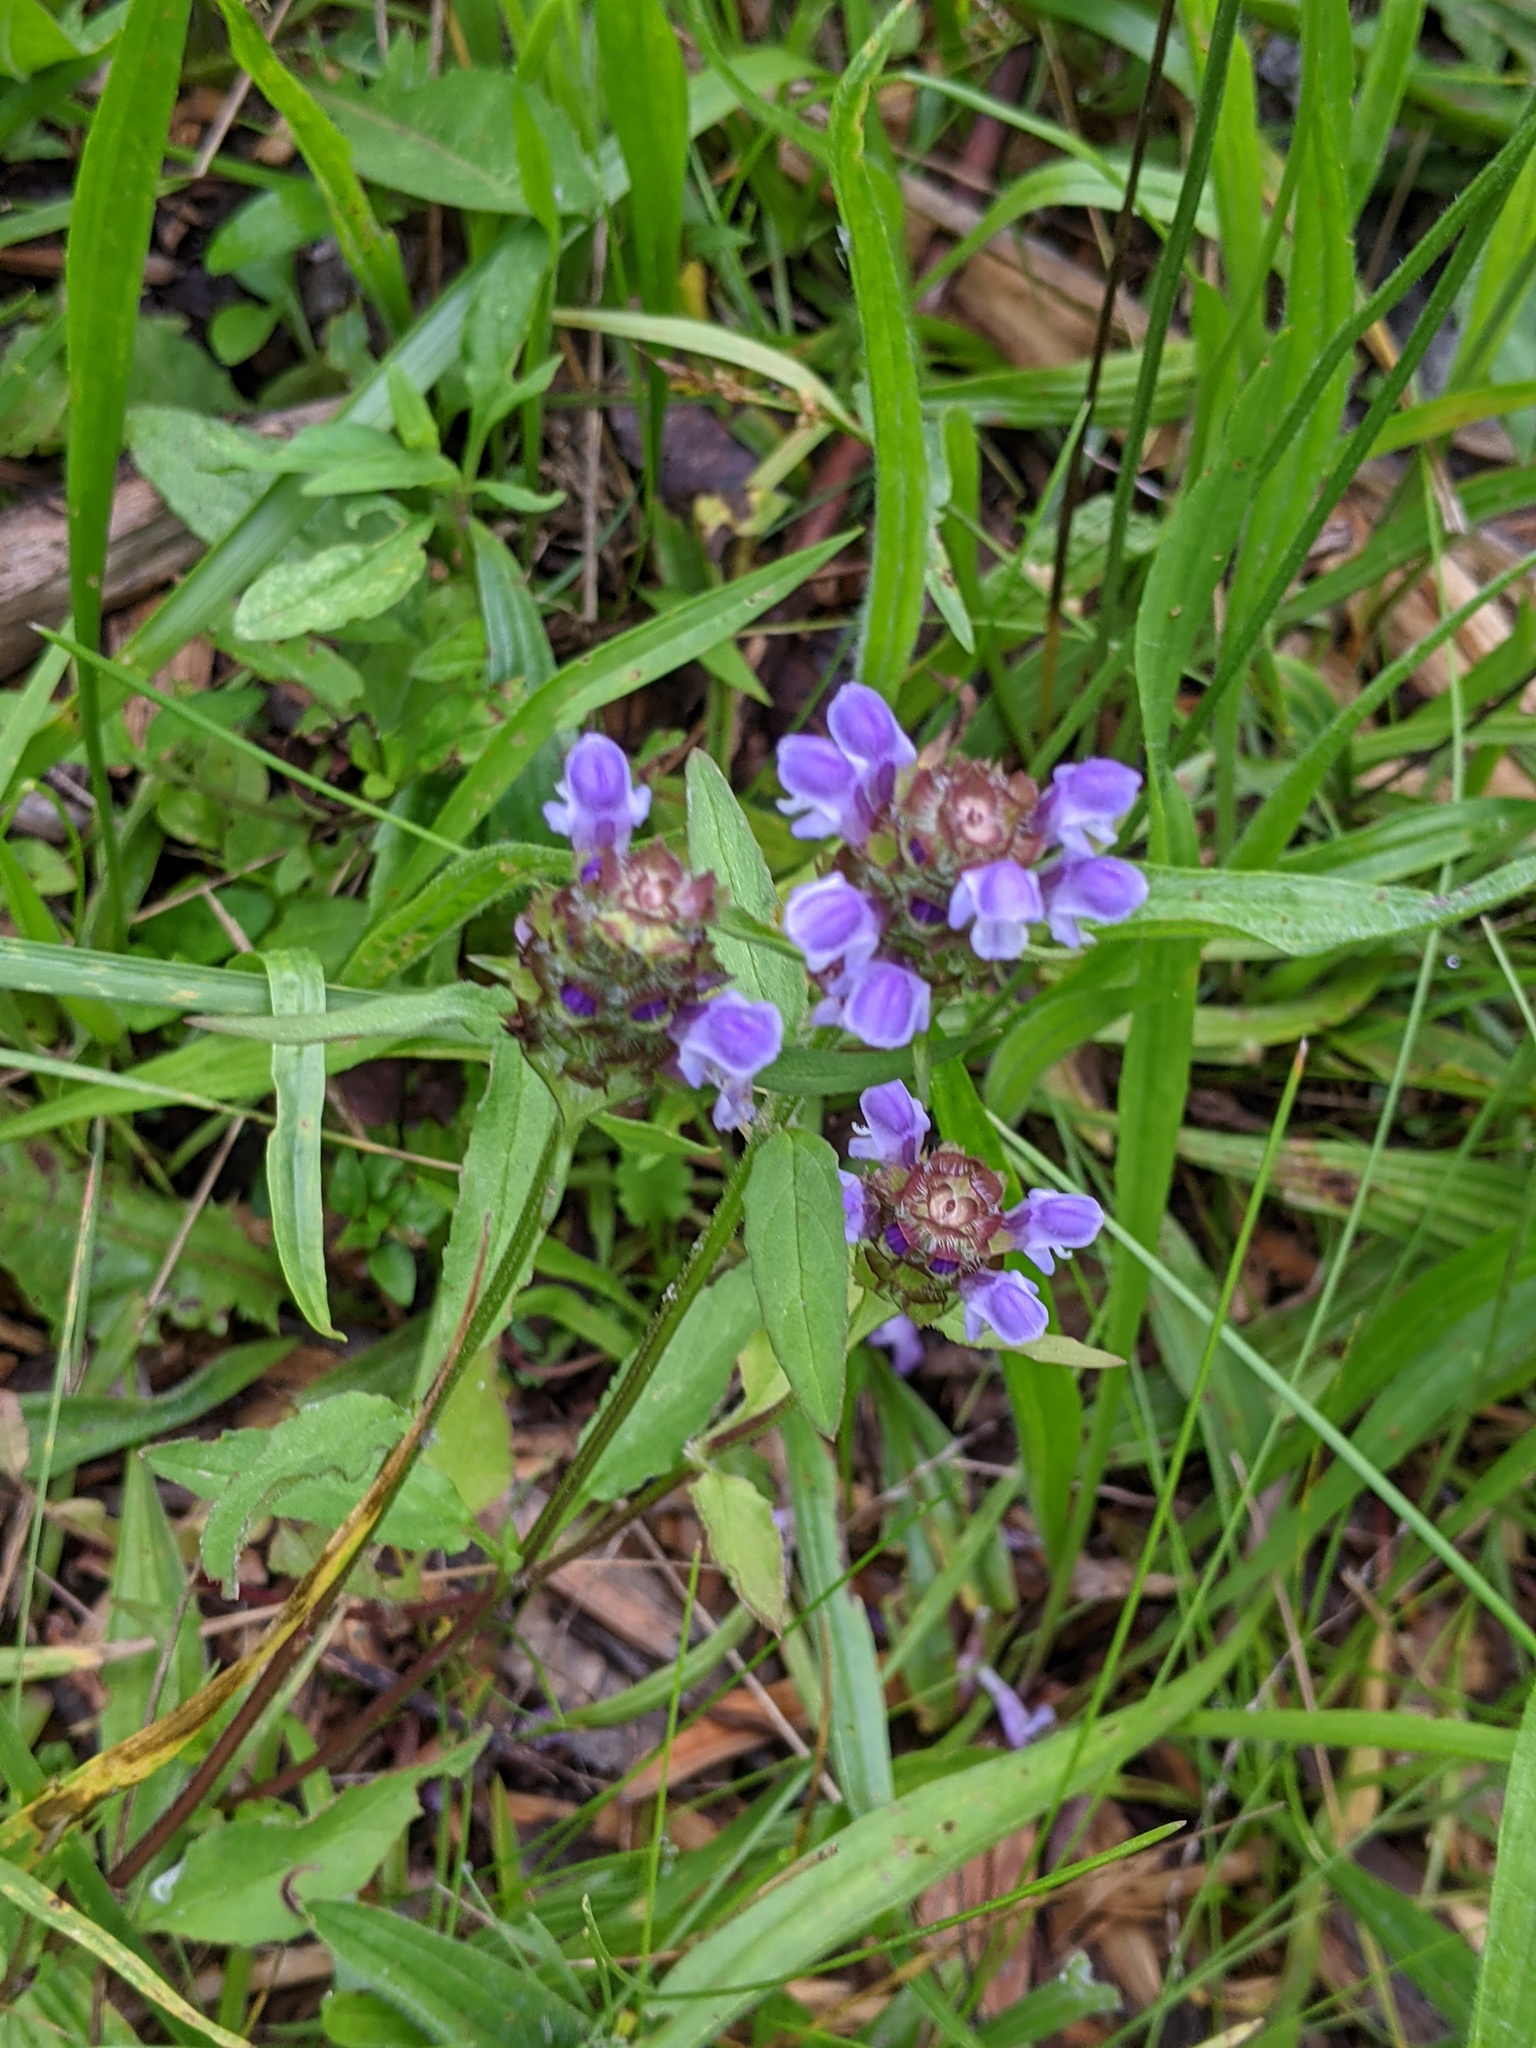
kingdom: Plantae
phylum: Tracheophyta
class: Magnoliopsida
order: Lamiales
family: Lamiaceae
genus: Prunella
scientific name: Prunella vulgaris
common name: Heal-all
